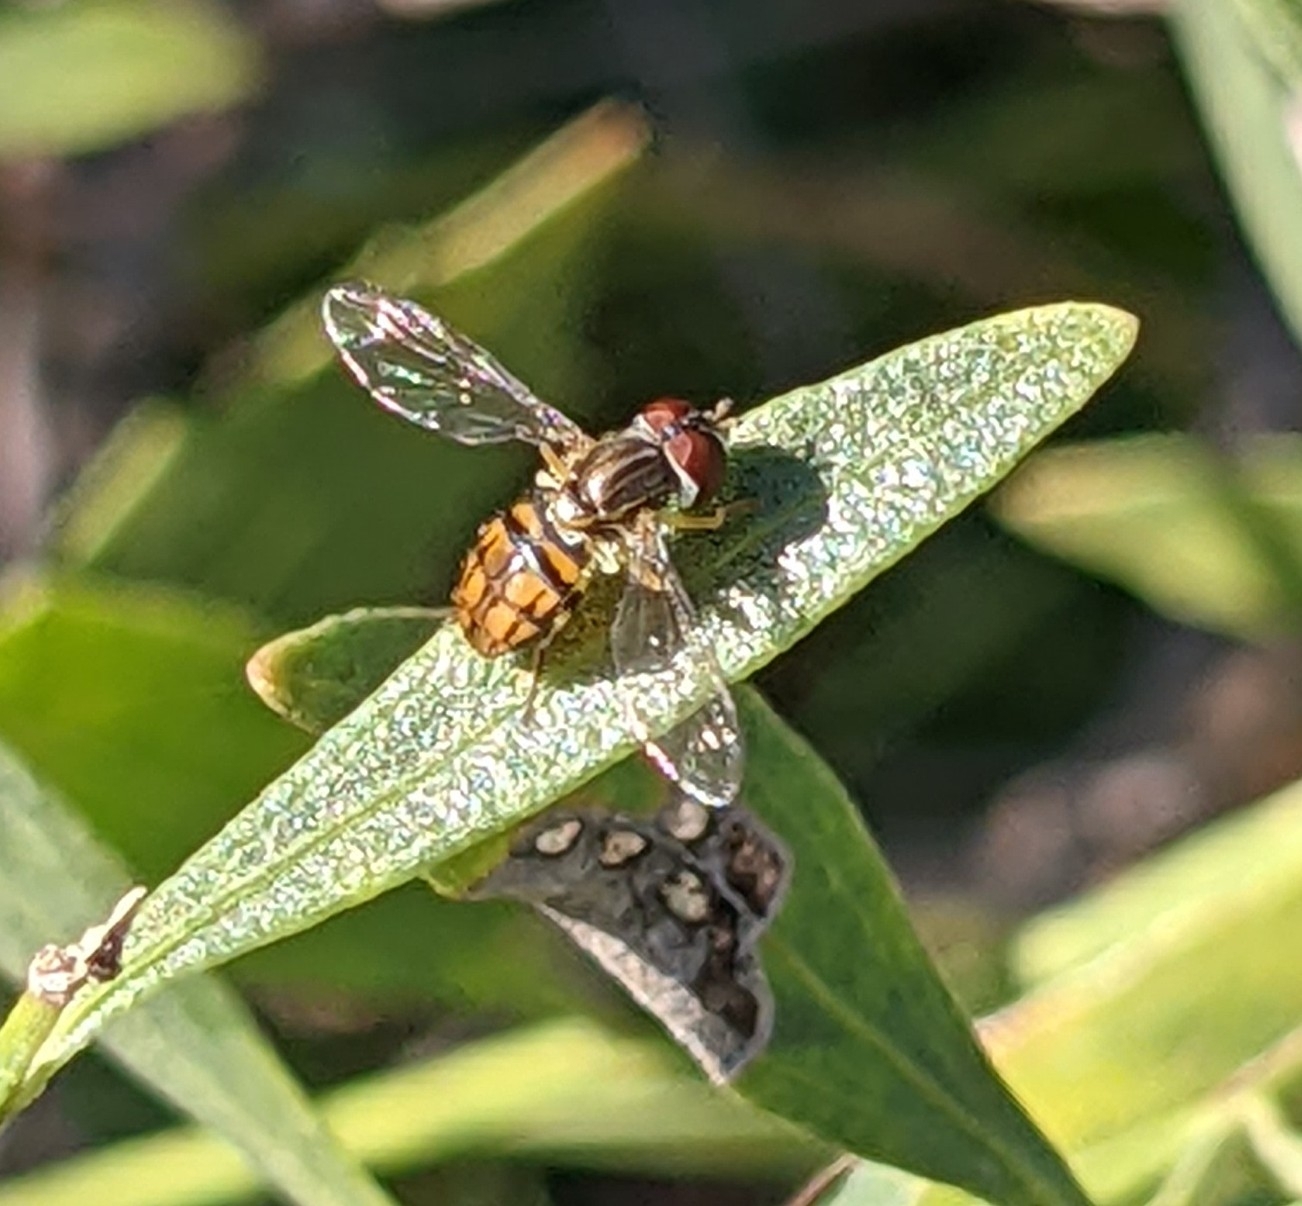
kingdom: Animalia
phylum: Arthropoda
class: Insecta
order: Diptera
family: Syrphidae
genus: Toxomerus
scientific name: Toxomerus boscii
